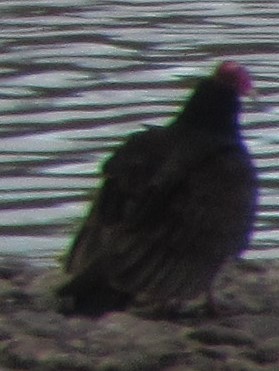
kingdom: Animalia
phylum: Chordata
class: Aves
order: Accipitriformes
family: Cathartidae
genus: Cathartes
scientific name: Cathartes aura
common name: Turkey vulture
